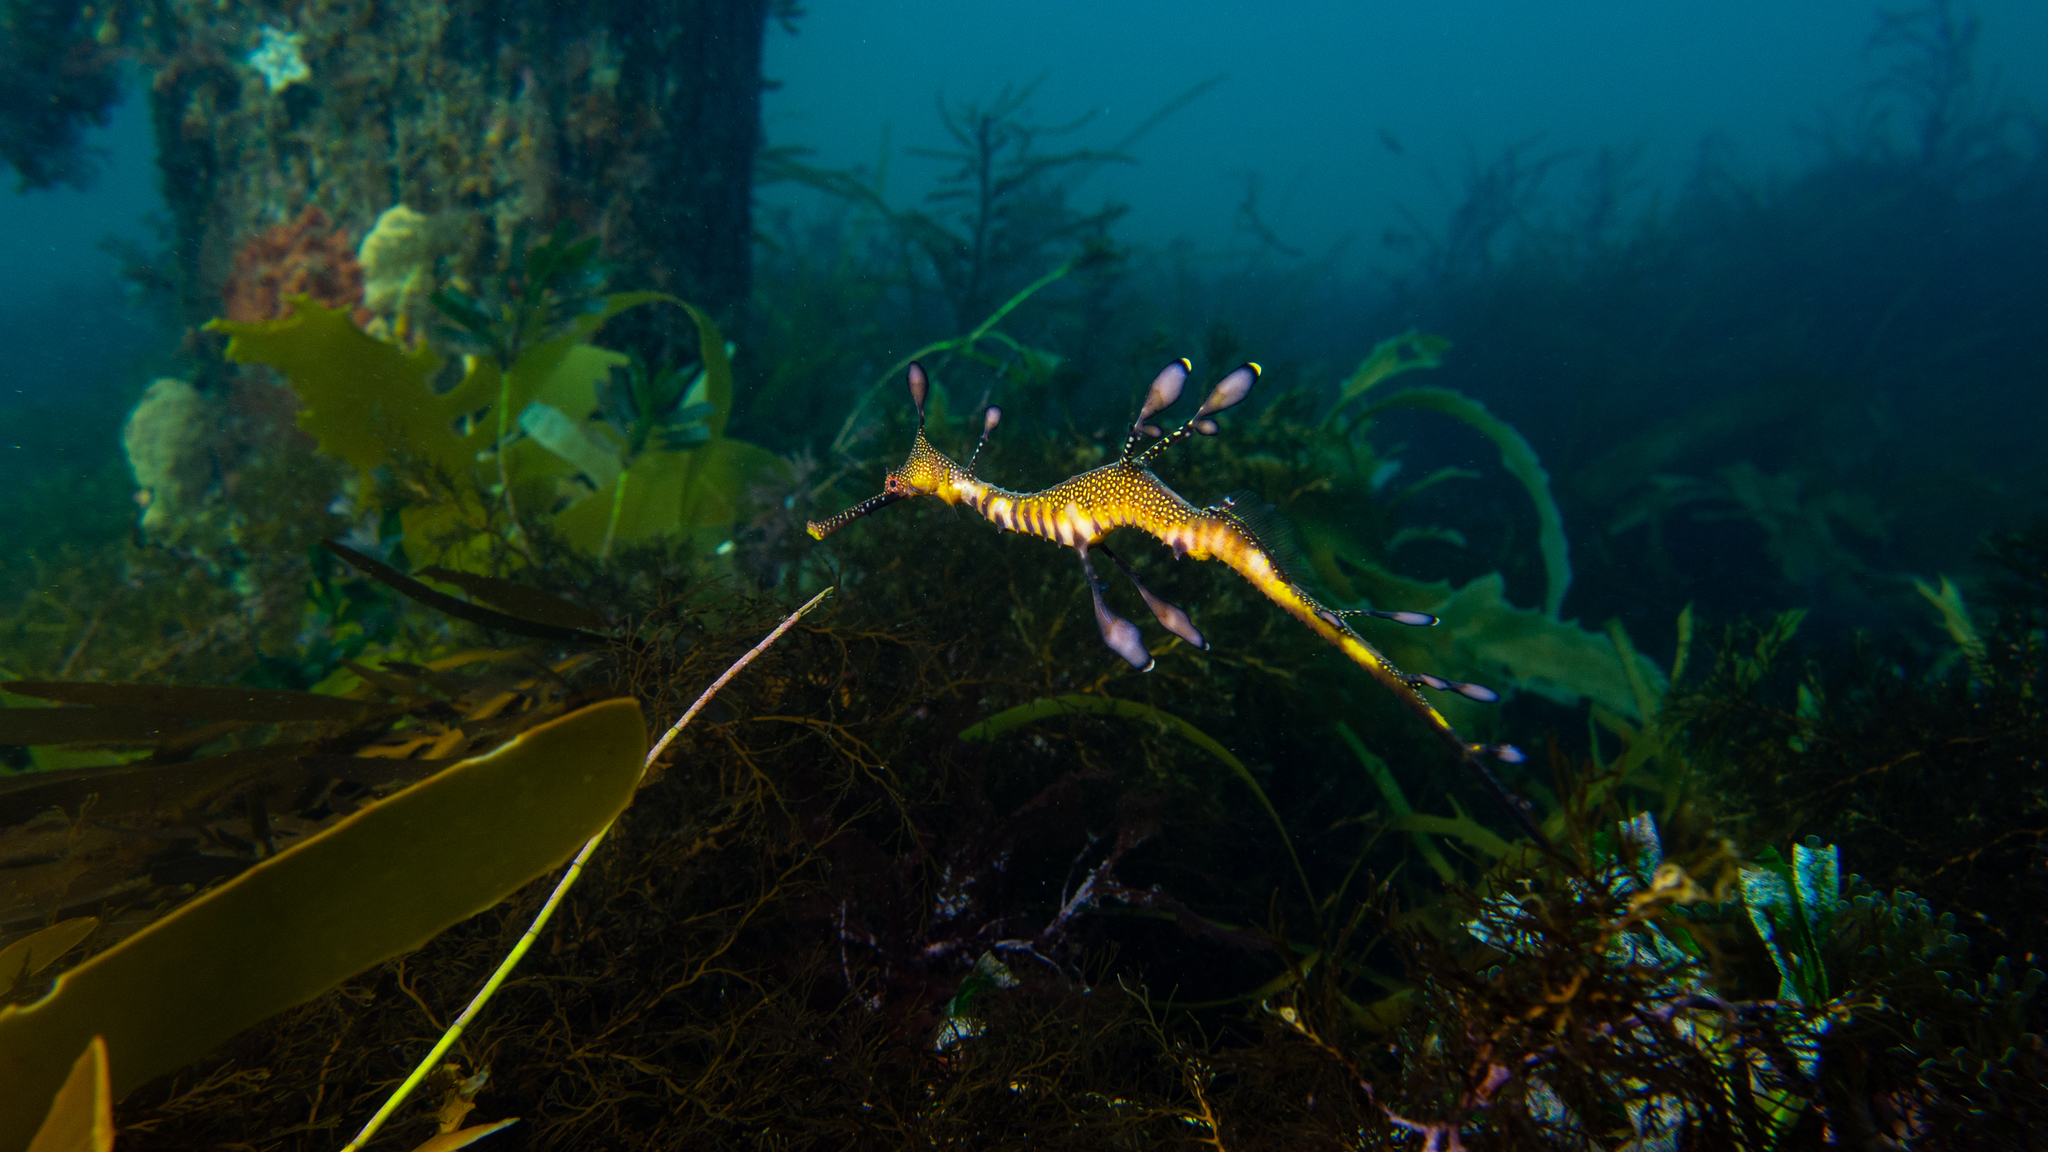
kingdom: Animalia
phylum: Chordata
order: Syngnathiformes
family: Syngnathidae
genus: Phyllopteryx
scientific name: Phyllopteryx taeniolatus
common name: Common seadragon
